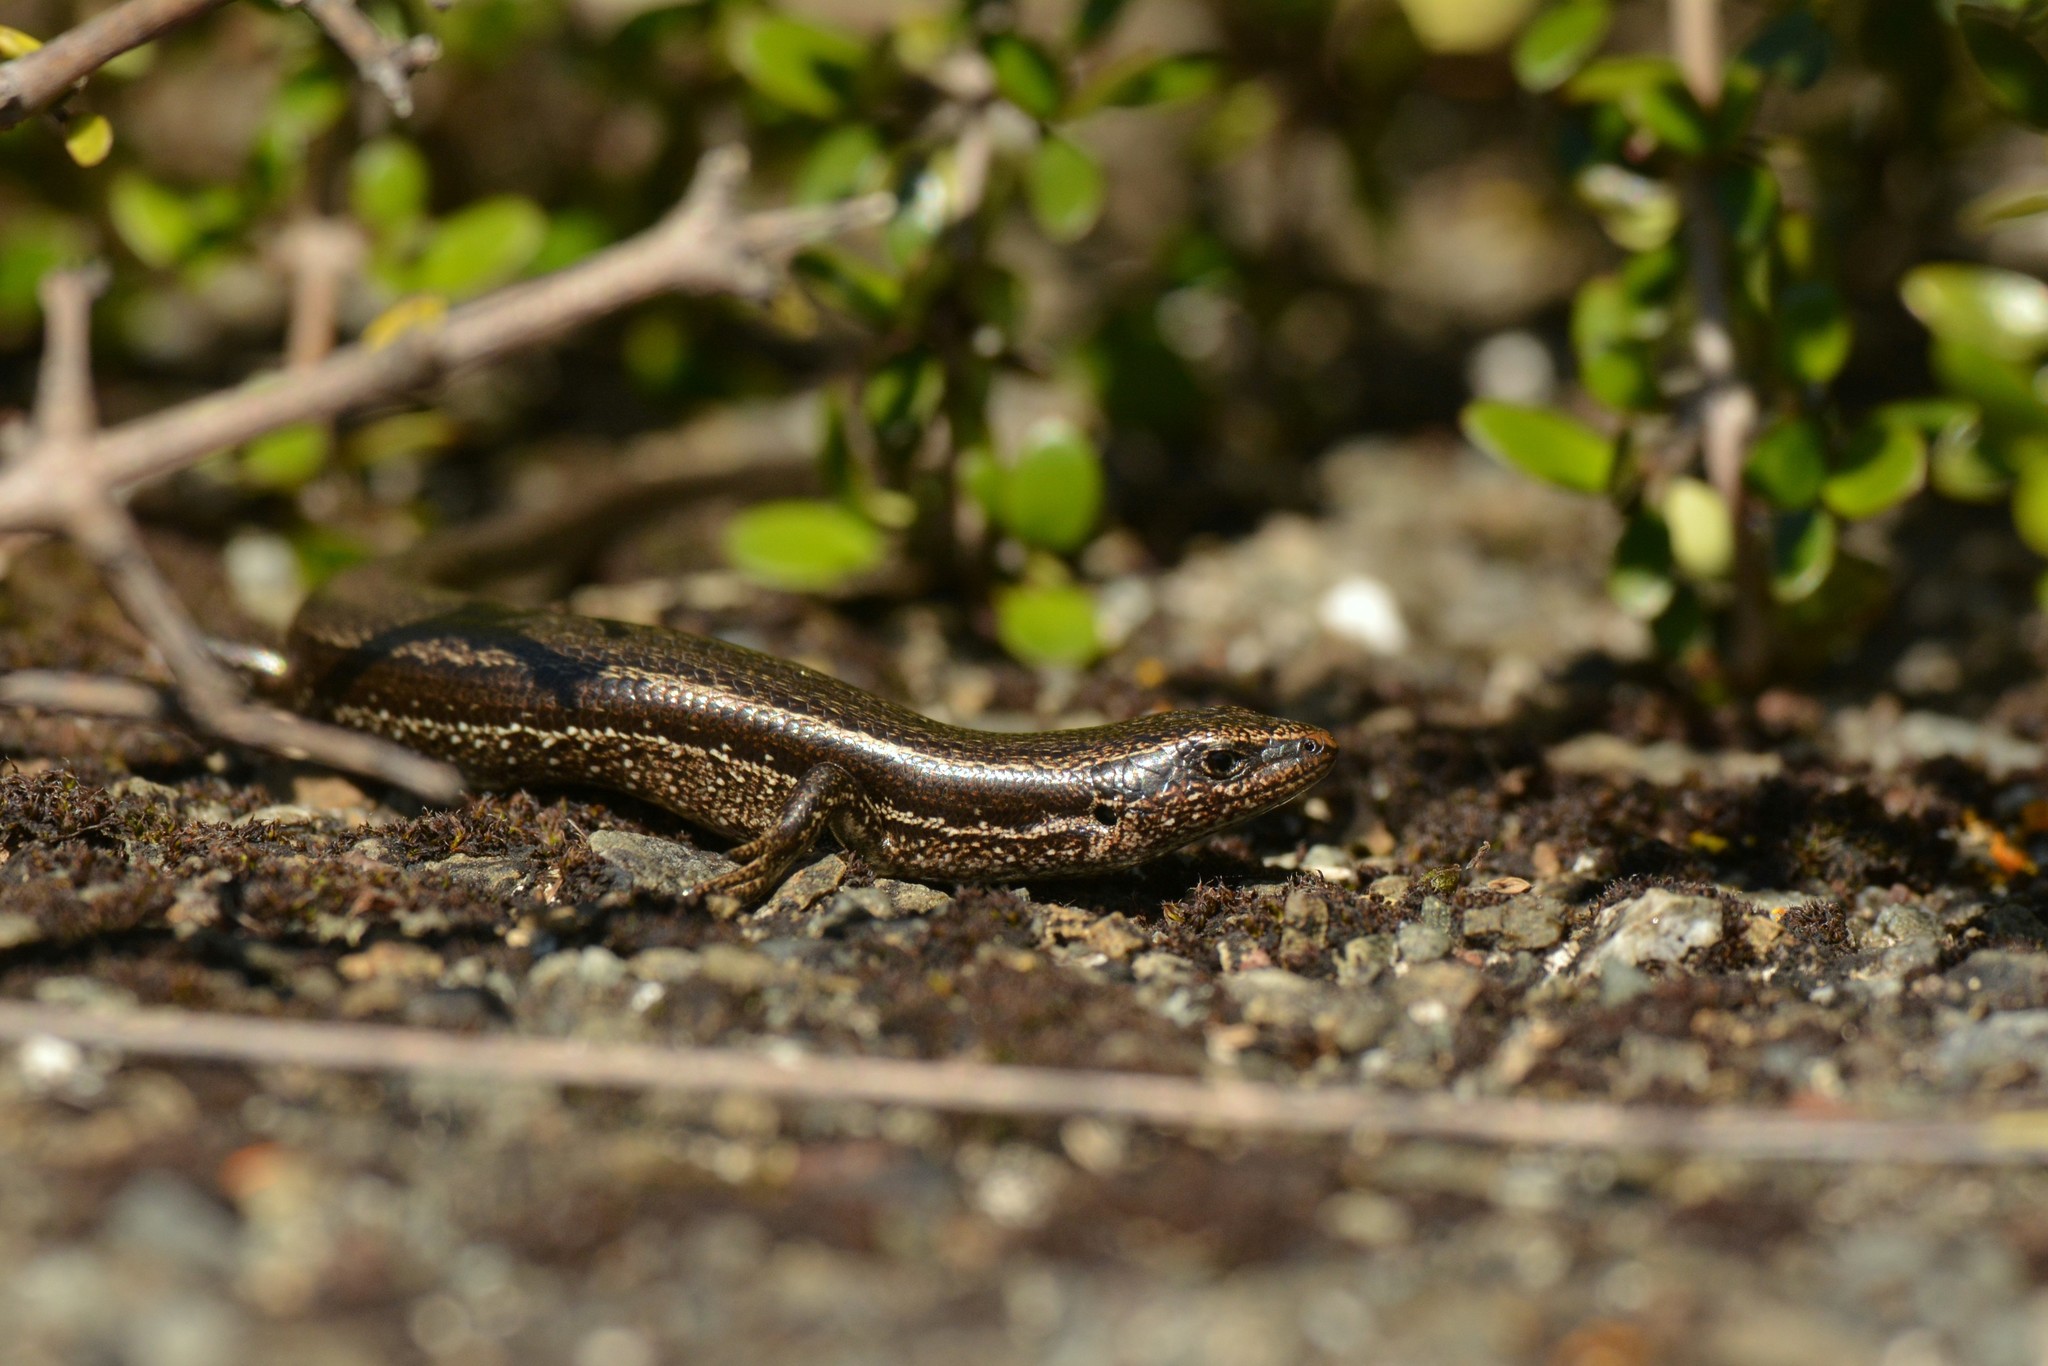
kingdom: Animalia
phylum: Chordata
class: Squamata
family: Scincidae
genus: Oligosoma
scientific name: Oligosoma polychroma
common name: Common new zealand skink
